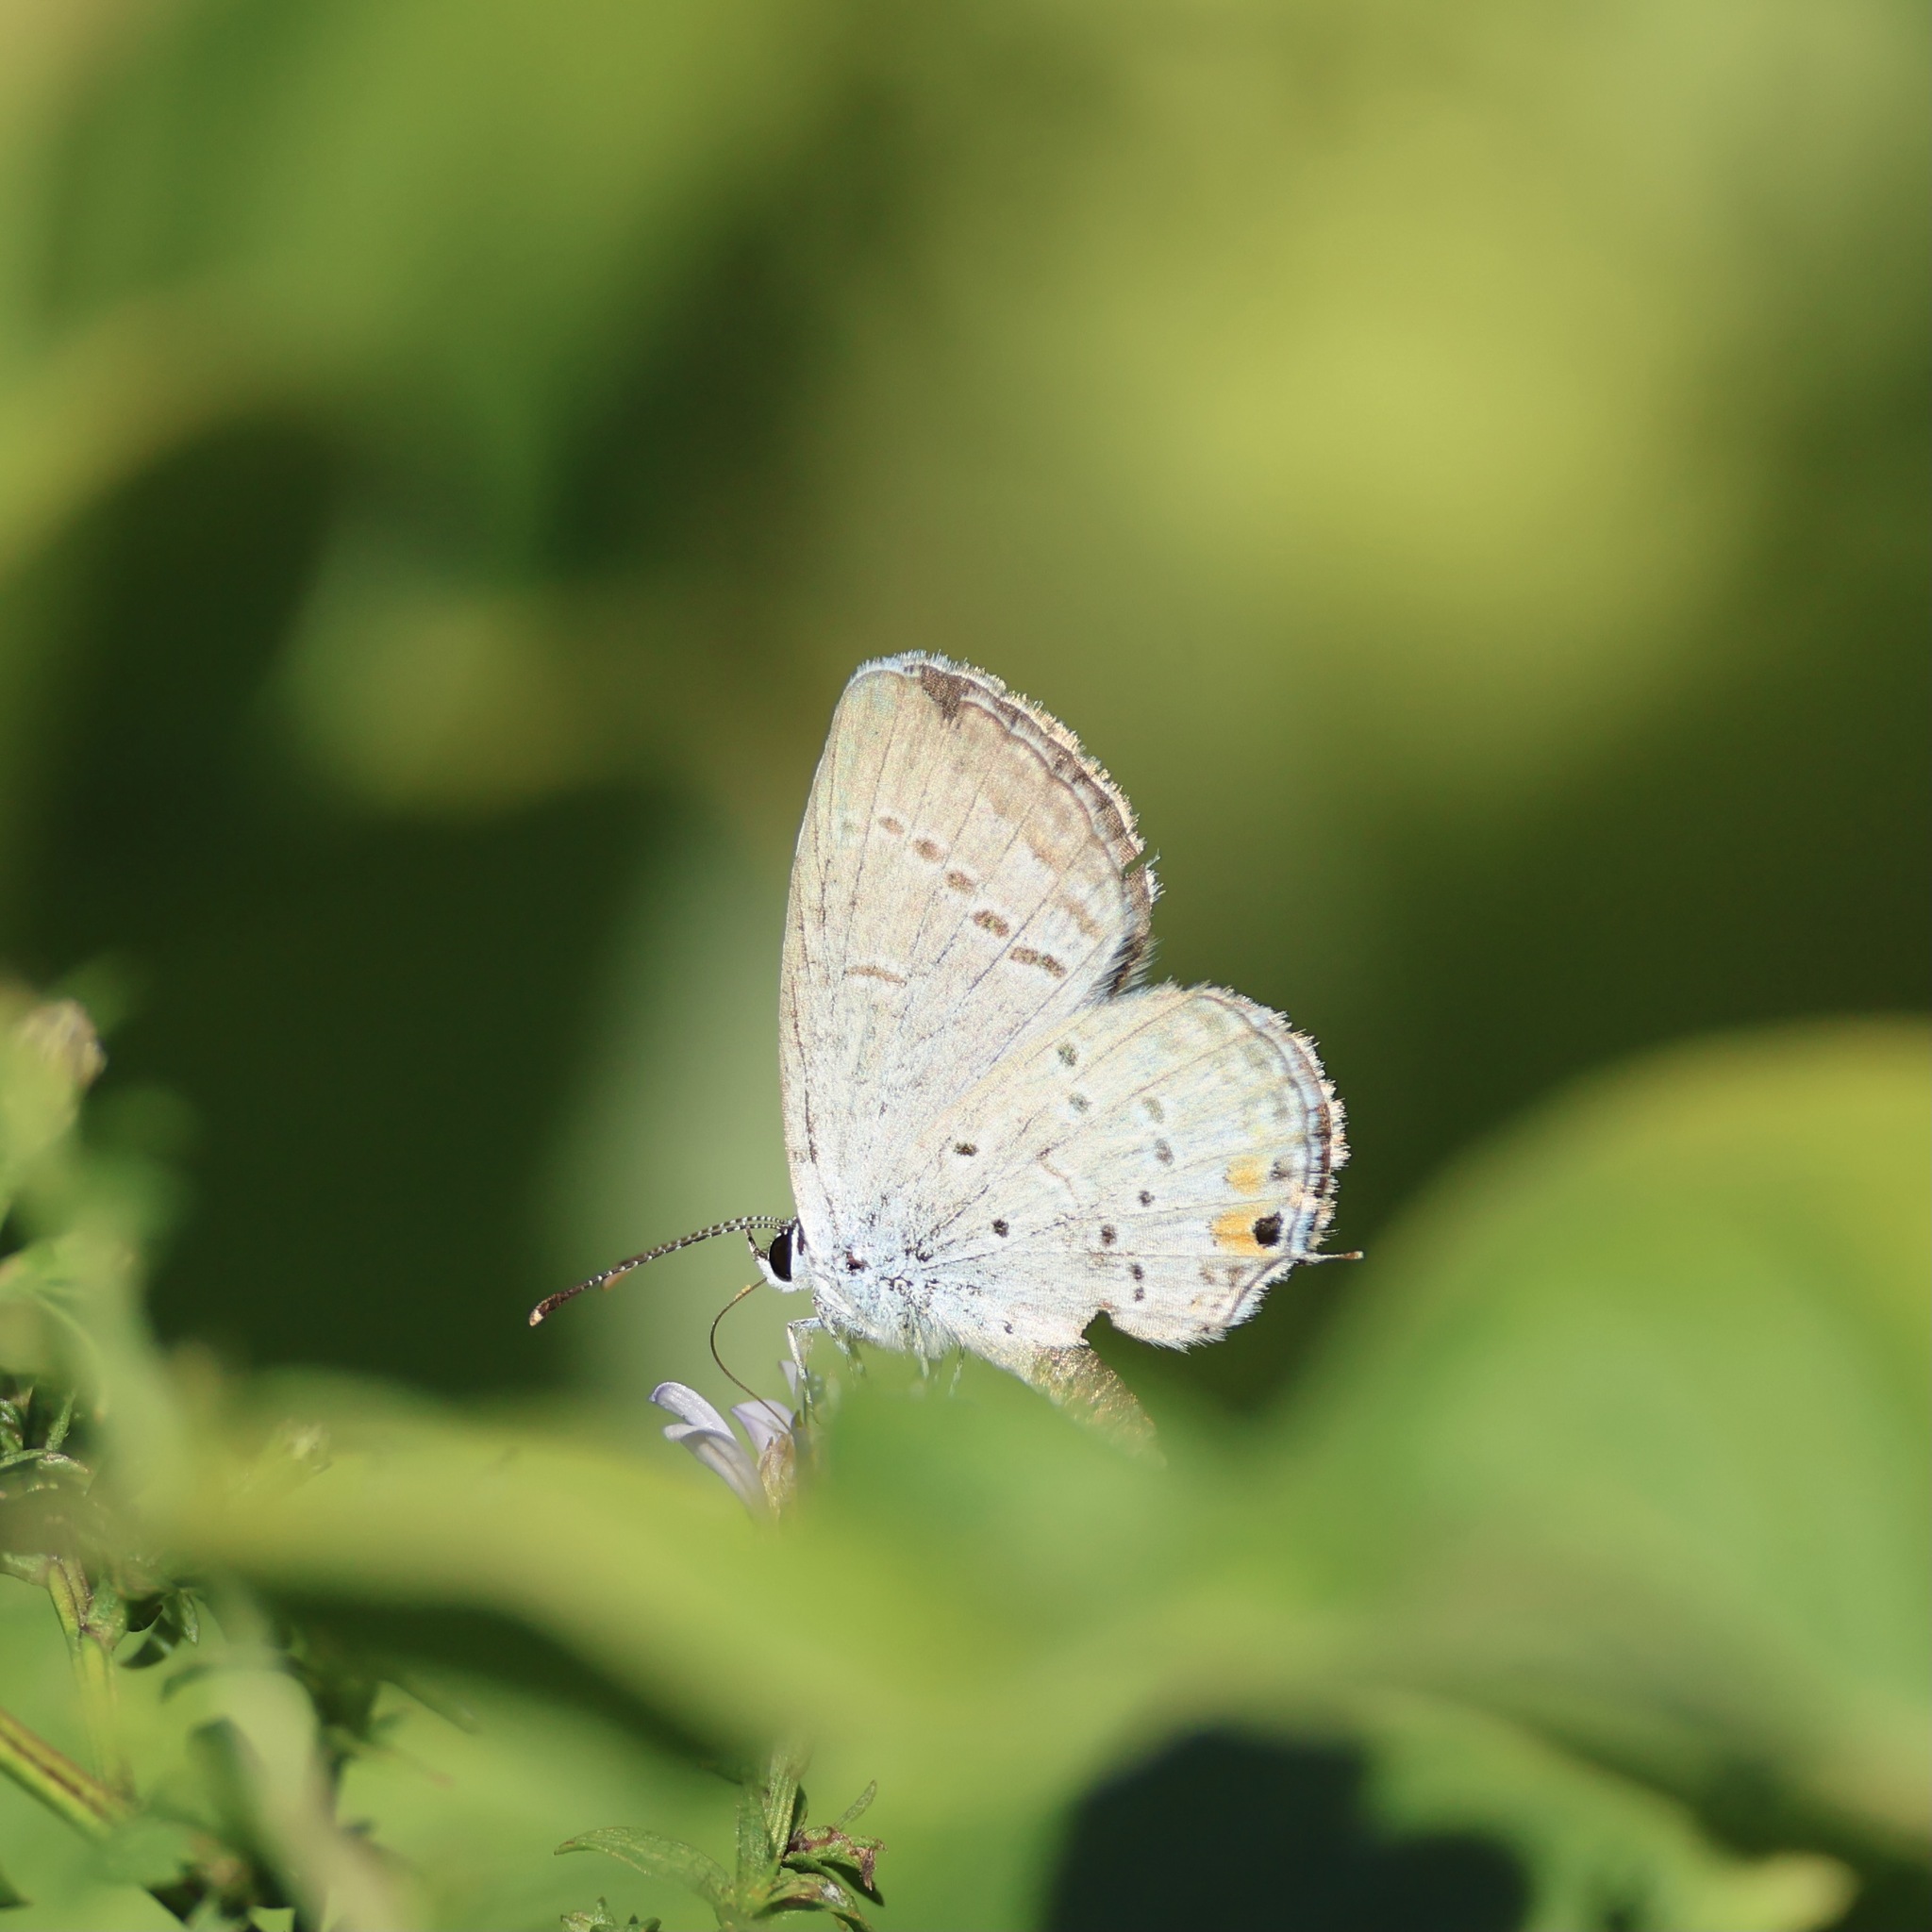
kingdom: Animalia
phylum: Arthropoda
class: Insecta
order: Lepidoptera
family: Lycaenidae
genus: Elkalyce
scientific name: Elkalyce comyntas
